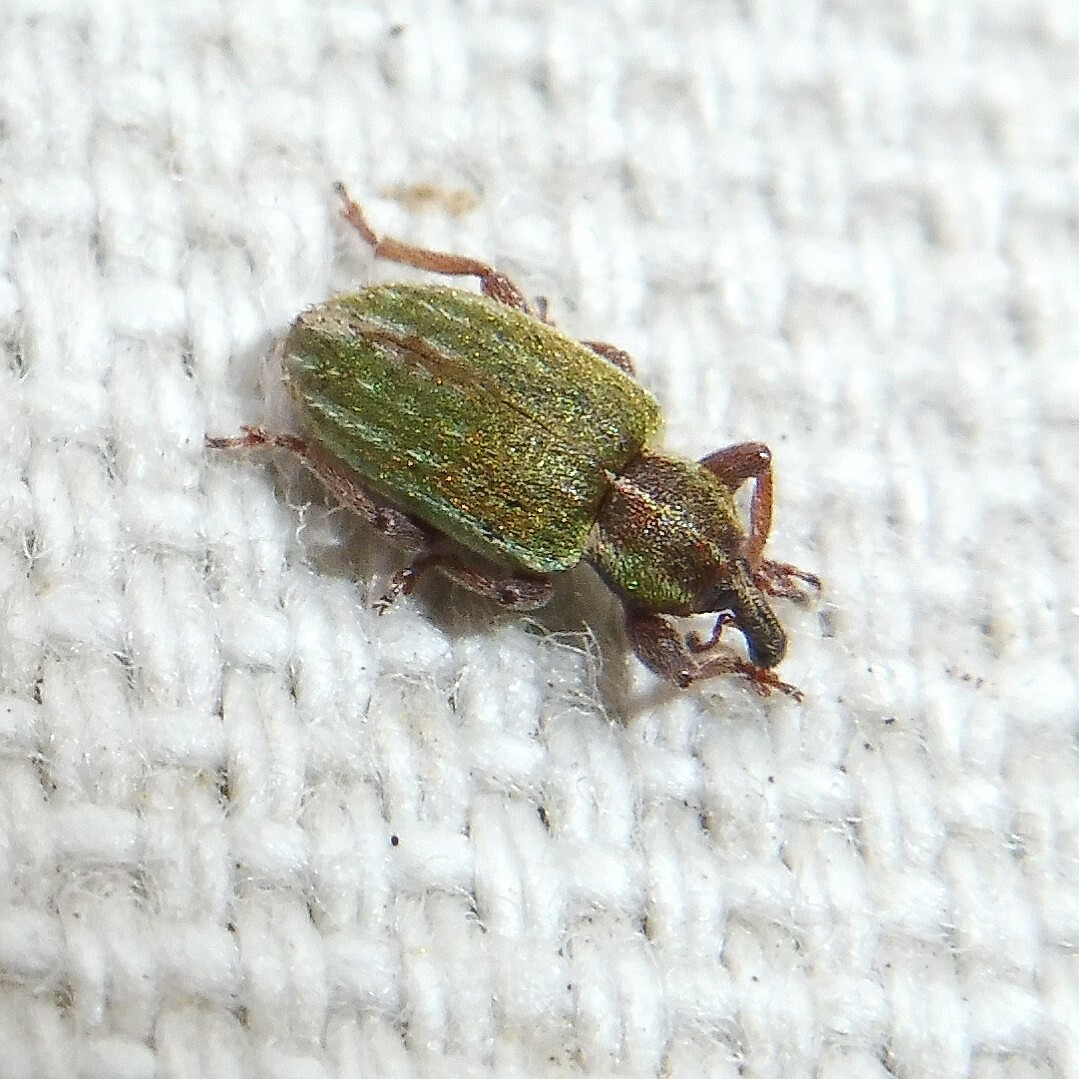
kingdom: Animalia
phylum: Arthropoda
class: Insecta
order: Coleoptera
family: Curculionidae
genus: Hypera
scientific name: Hypera nigrirostris
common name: Black-beaked green weevil
